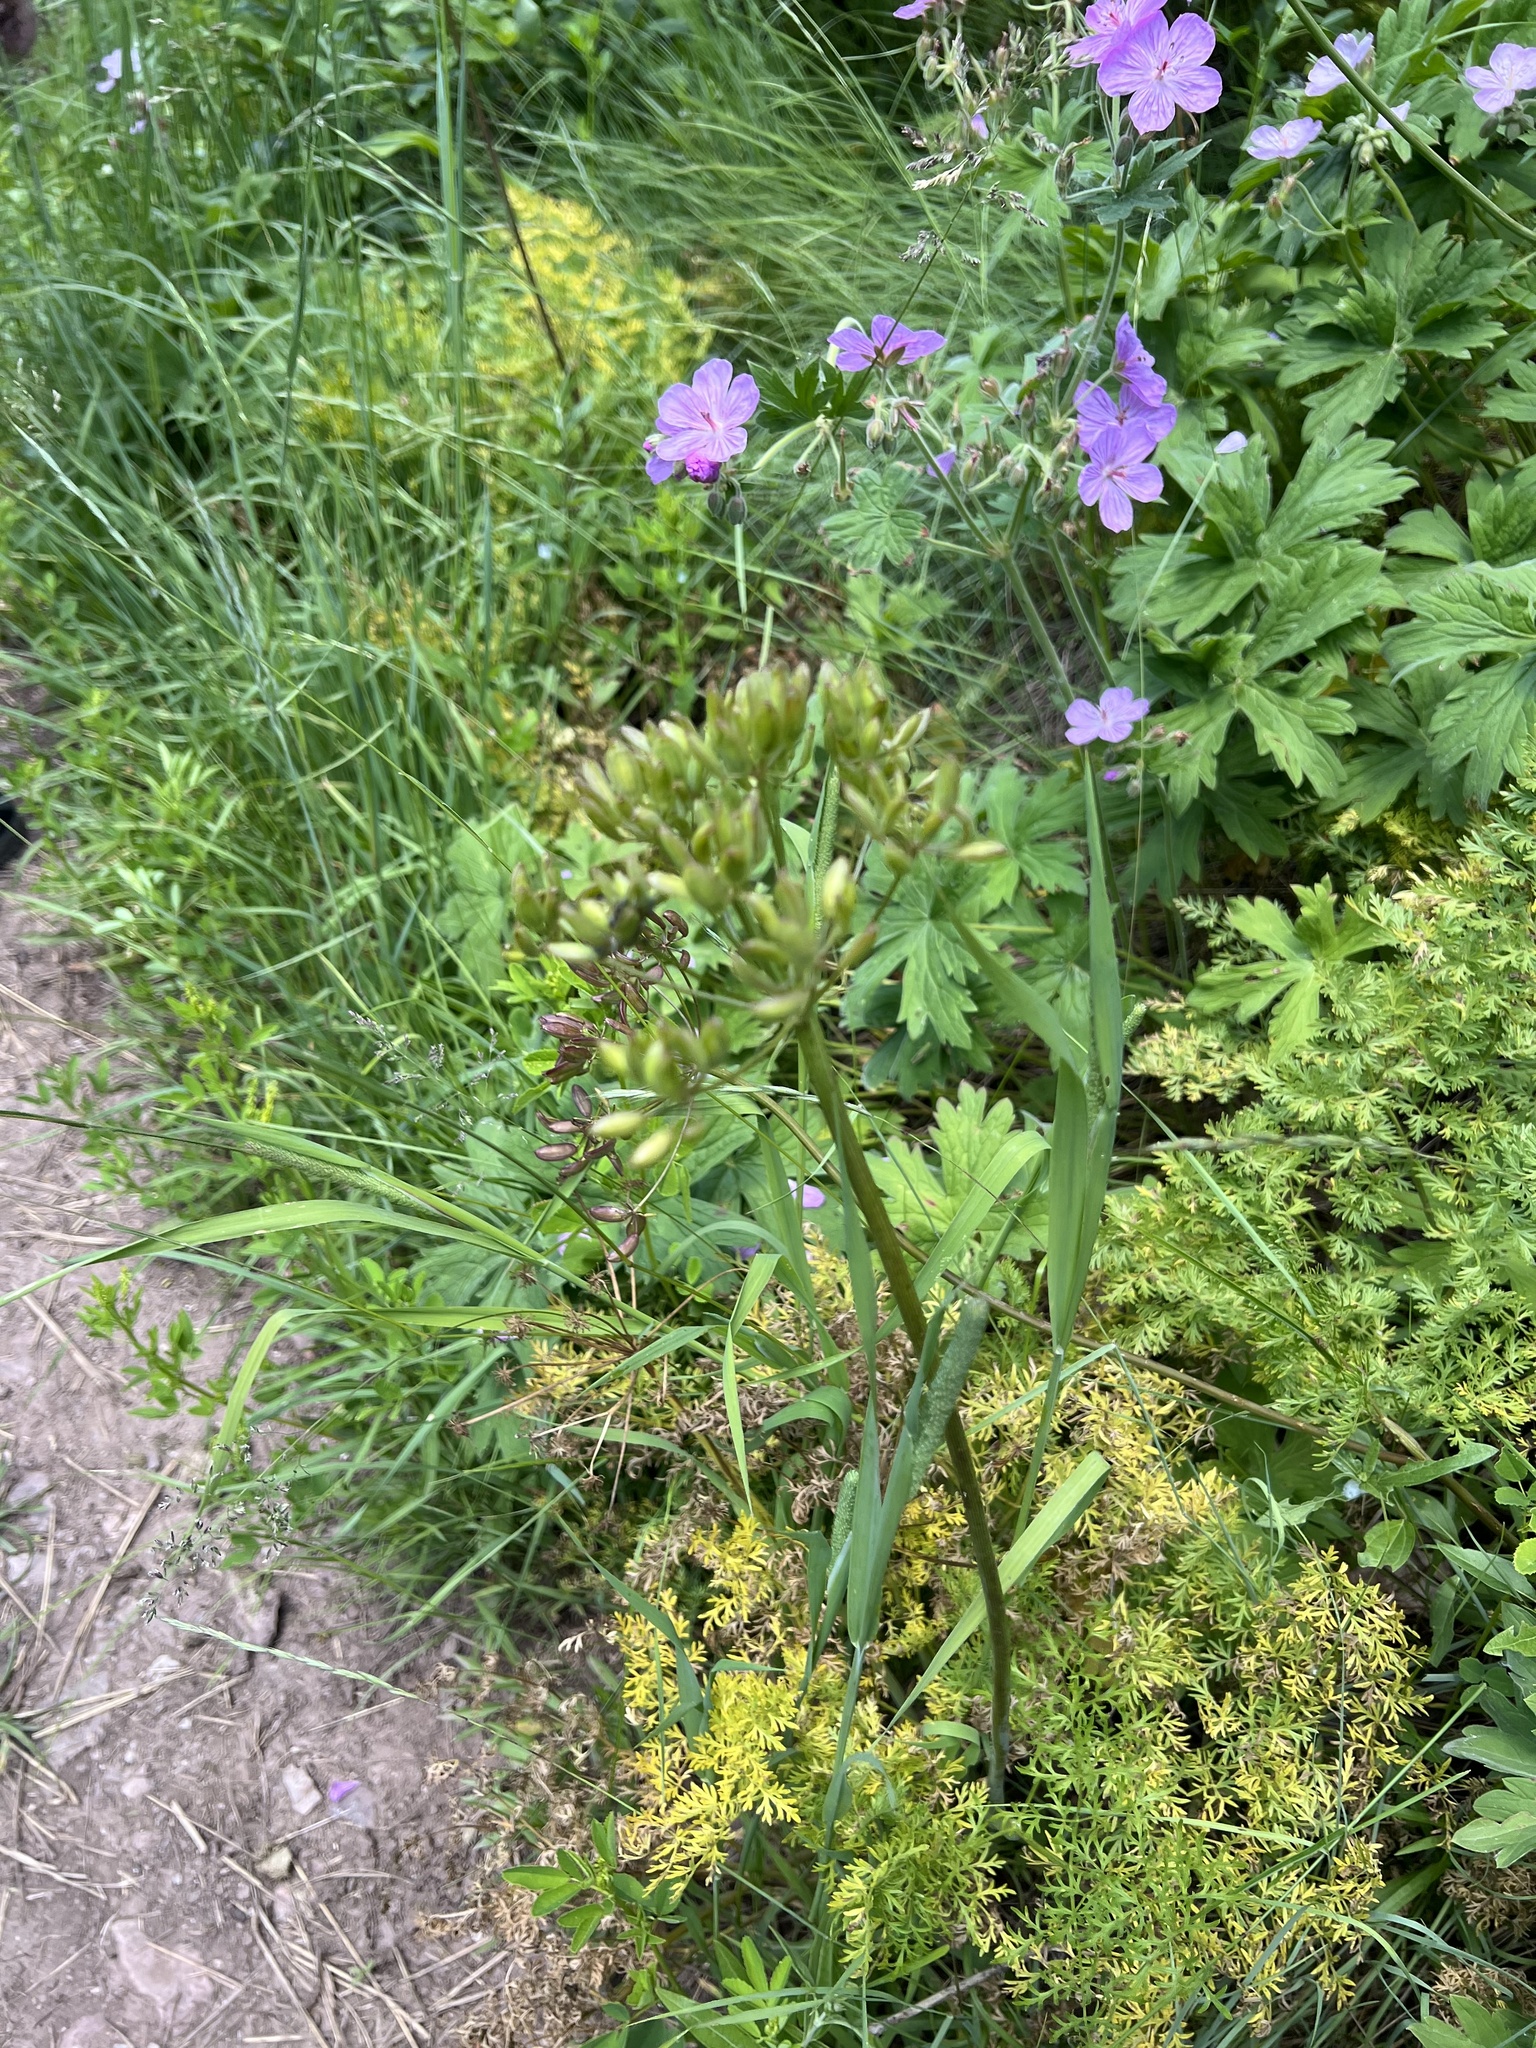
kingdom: Plantae
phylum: Tracheophyta
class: Magnoliopsida
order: Apiales
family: Apiaceae
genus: Lomatium
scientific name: Lomatium multifidum
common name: Carrot-leaved biscuitroot
